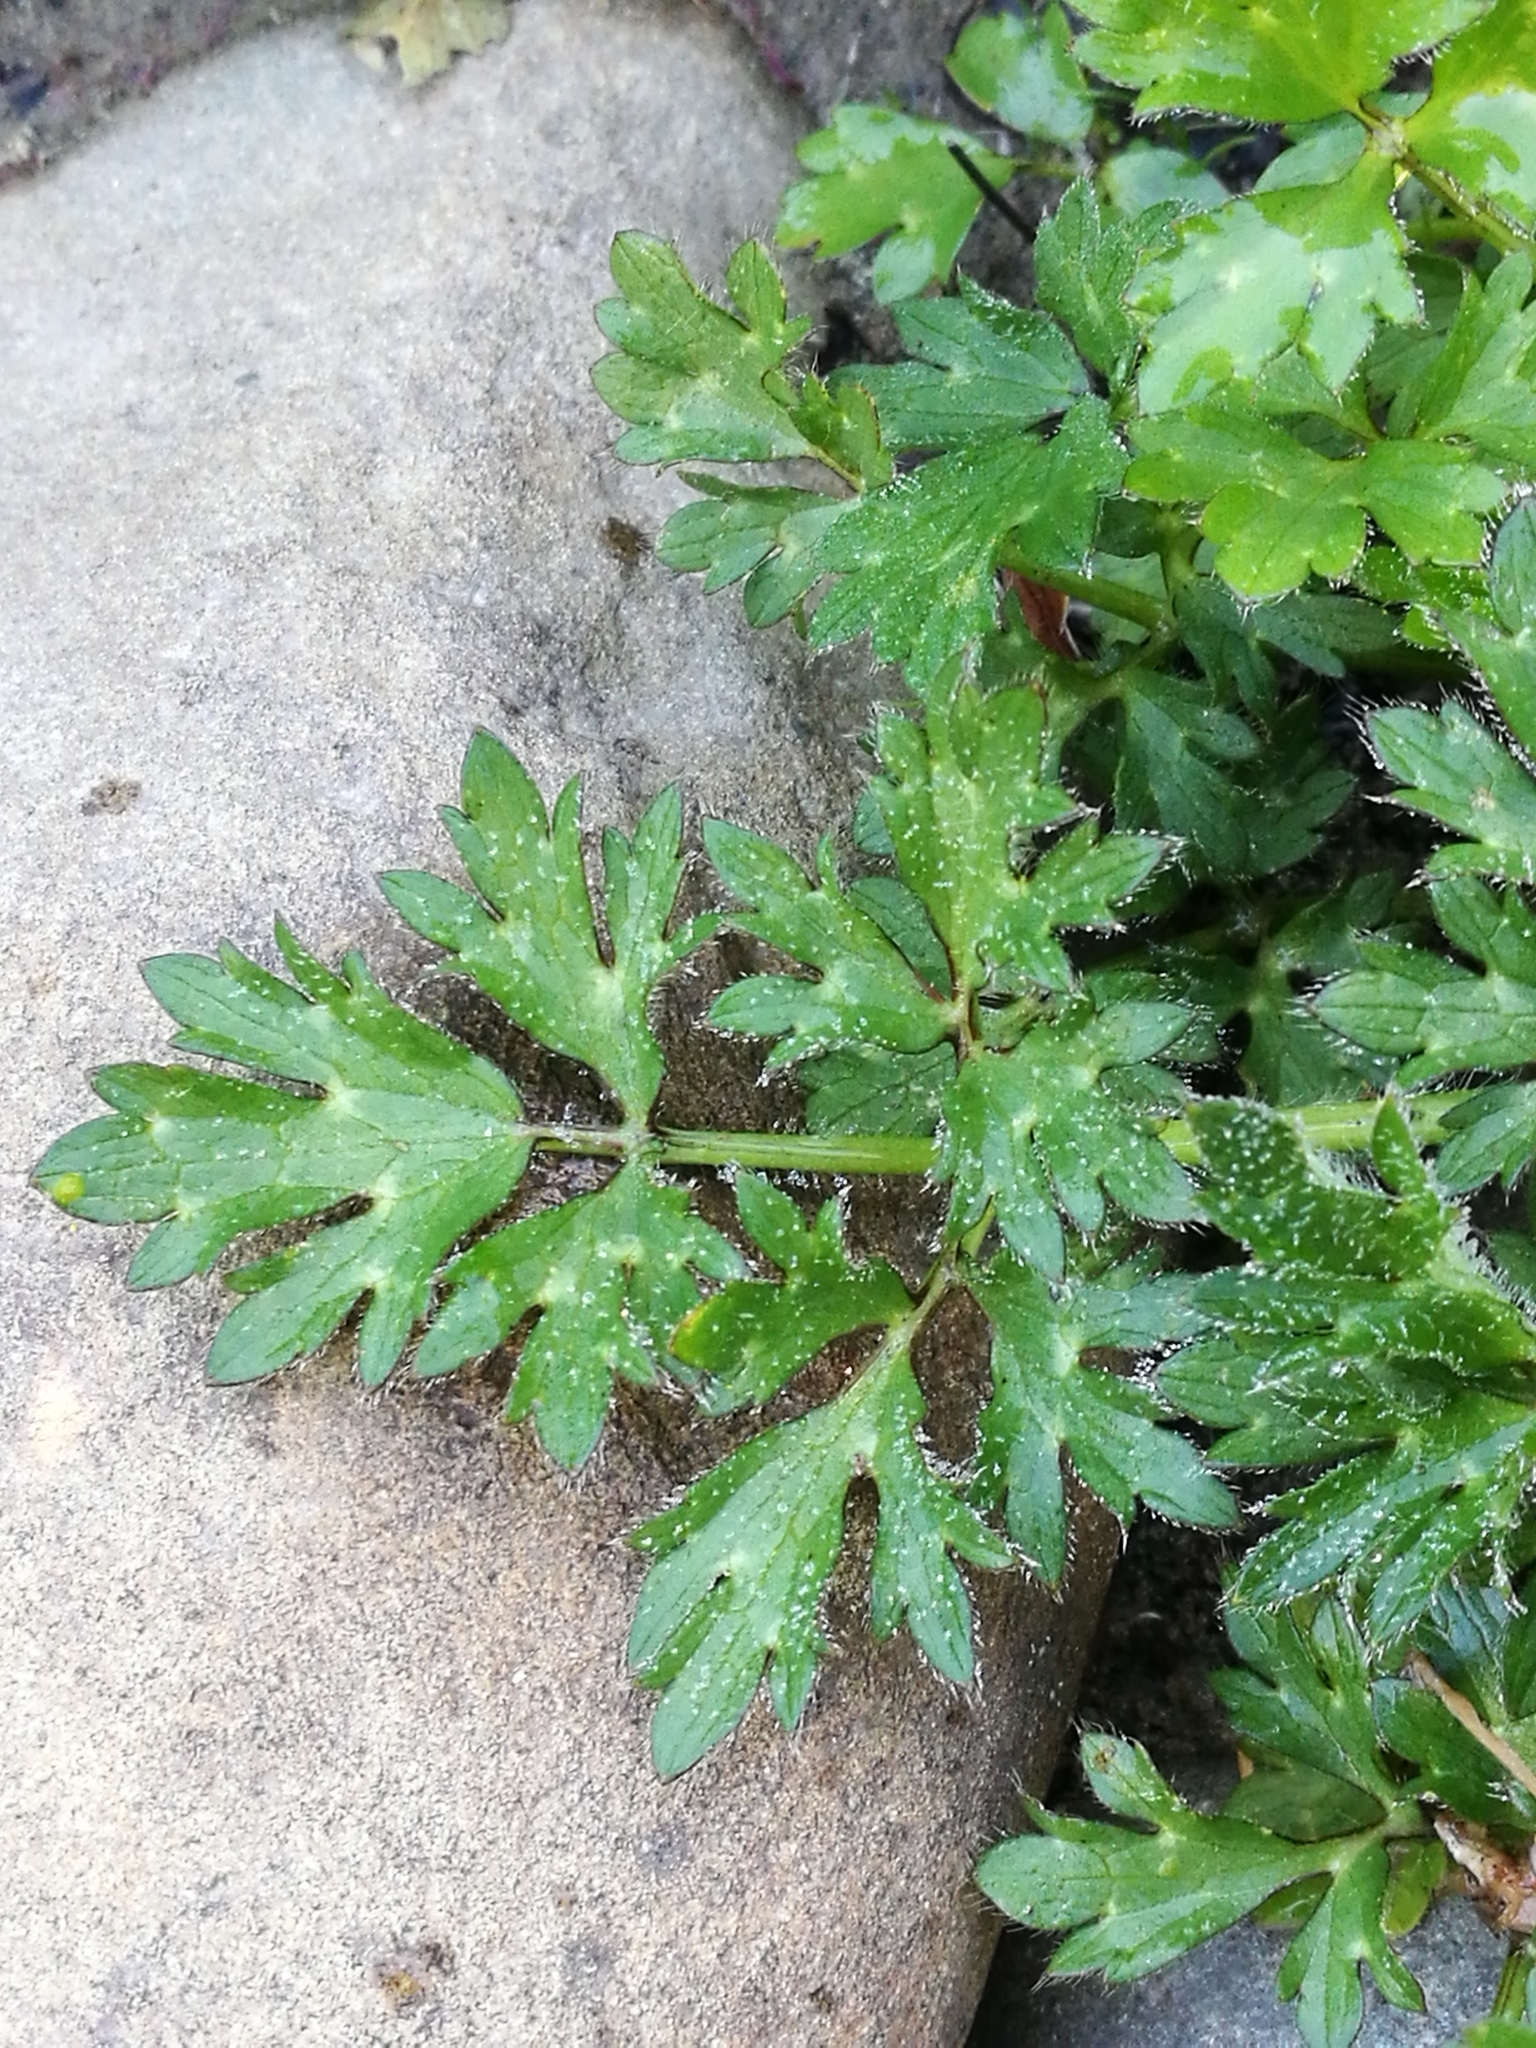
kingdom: Plantae
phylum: Tracheophyta
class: Magnoliopsida
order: Ranunculales
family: Ranunculaceae
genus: Ranunculus
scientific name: Ranunculus repens
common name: Creeping buttercup
